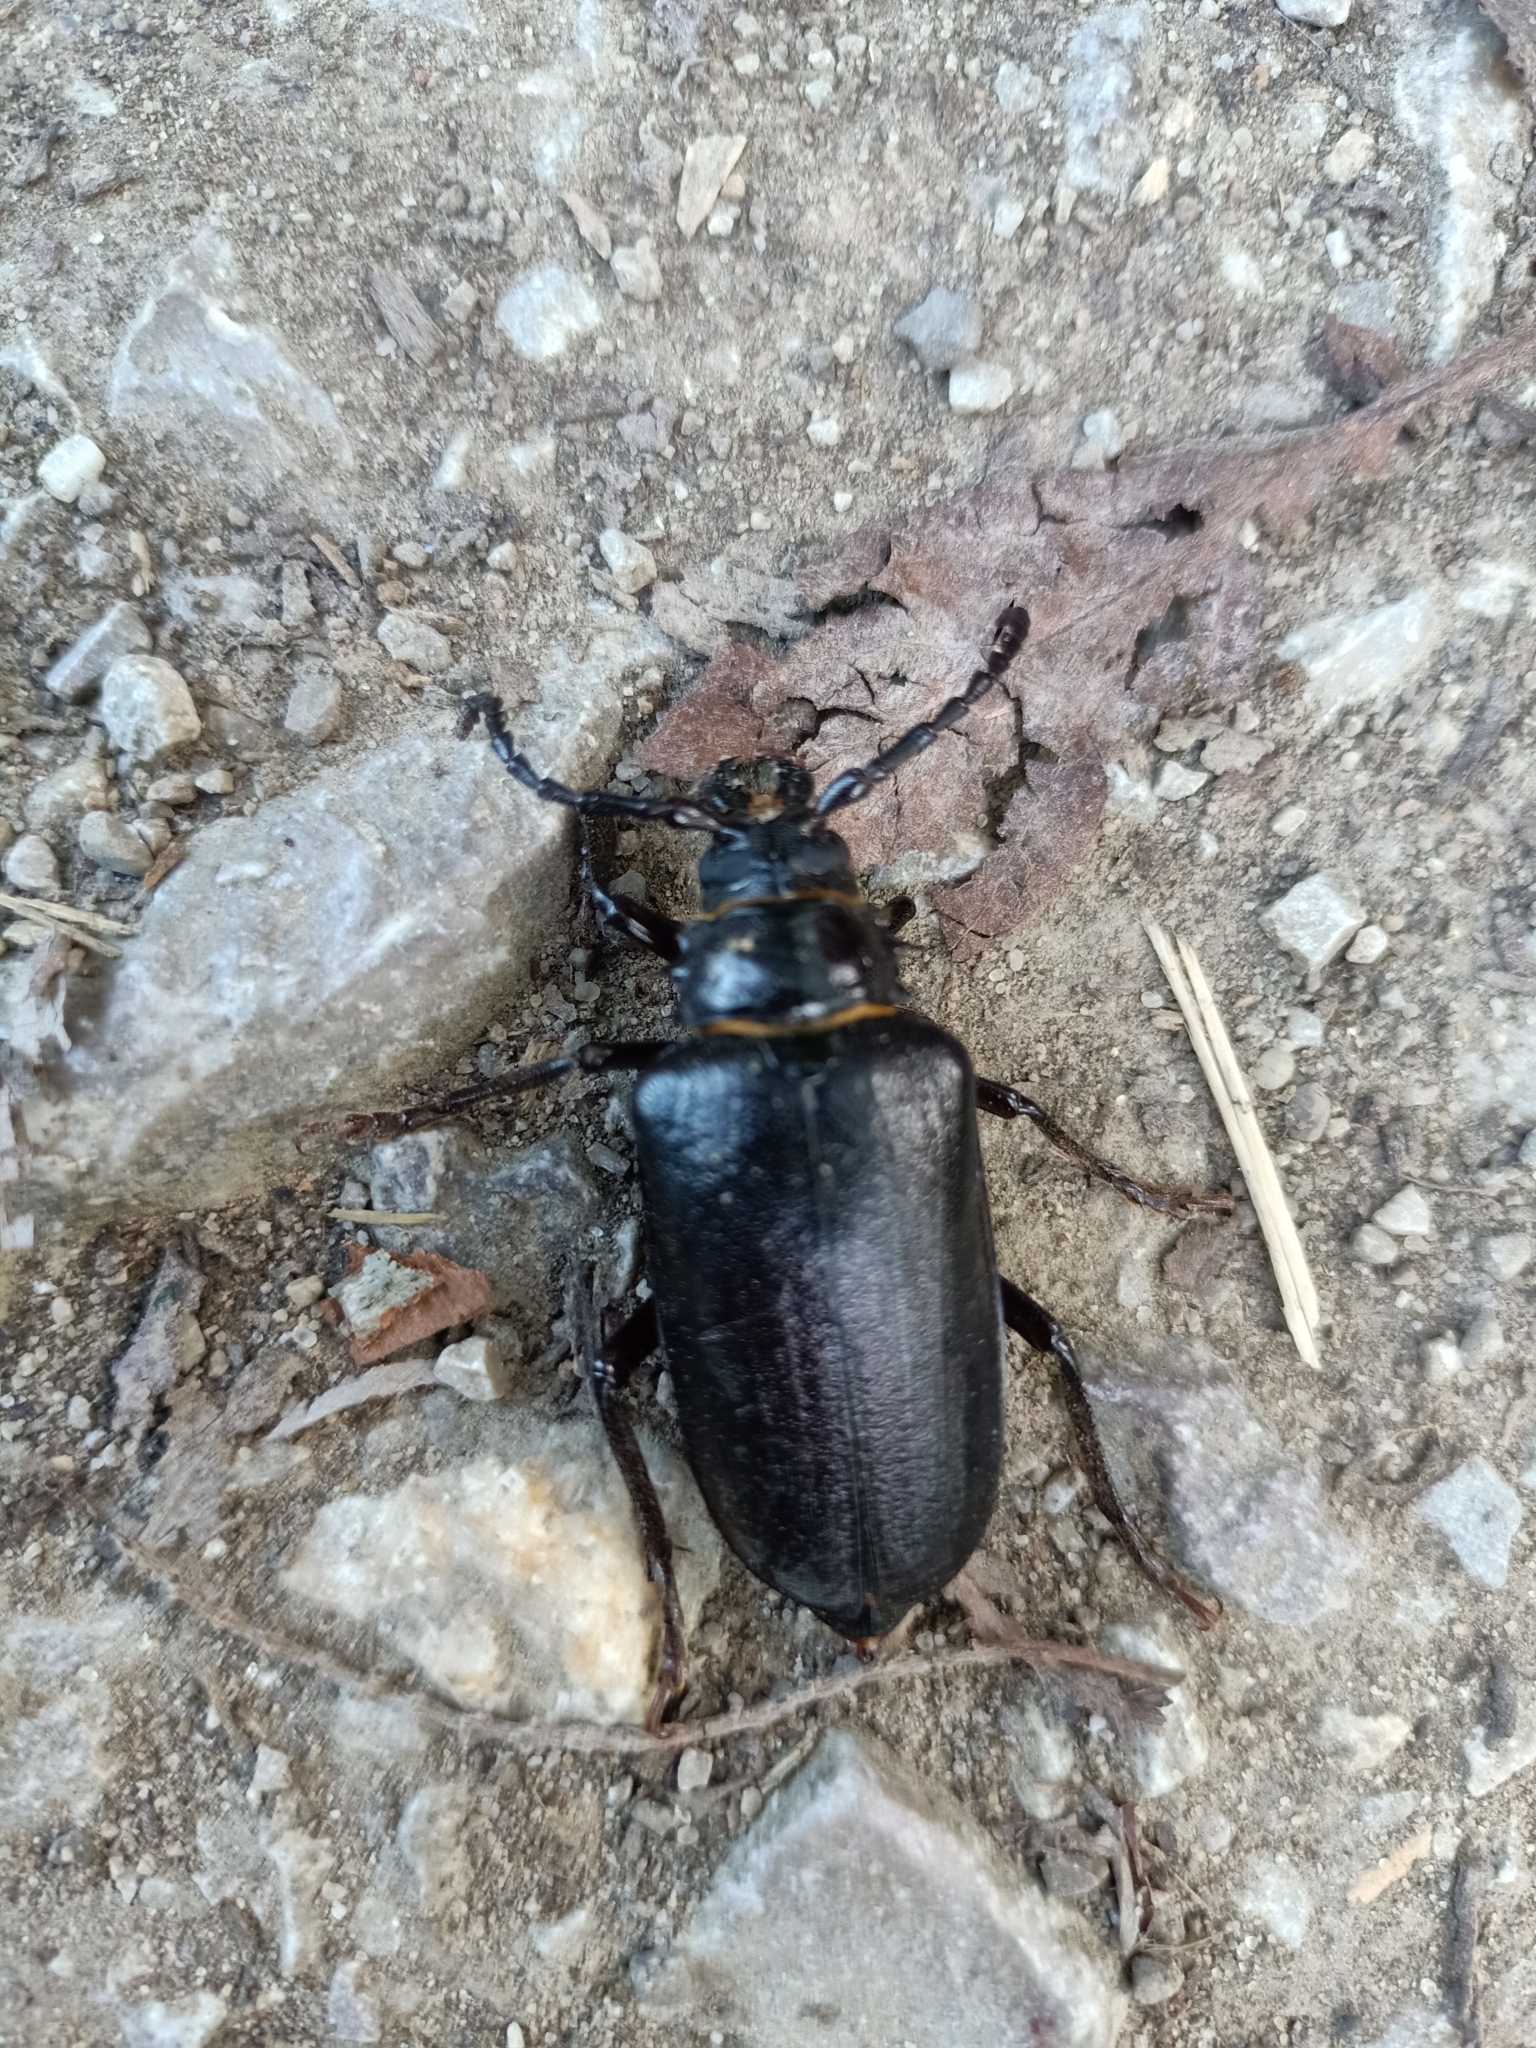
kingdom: Animalia
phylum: Arthropoda
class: Insecta
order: Coleoptera
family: Cerambycidae
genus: Prionus
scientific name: Prionus coriarius
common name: Tanner beetle
